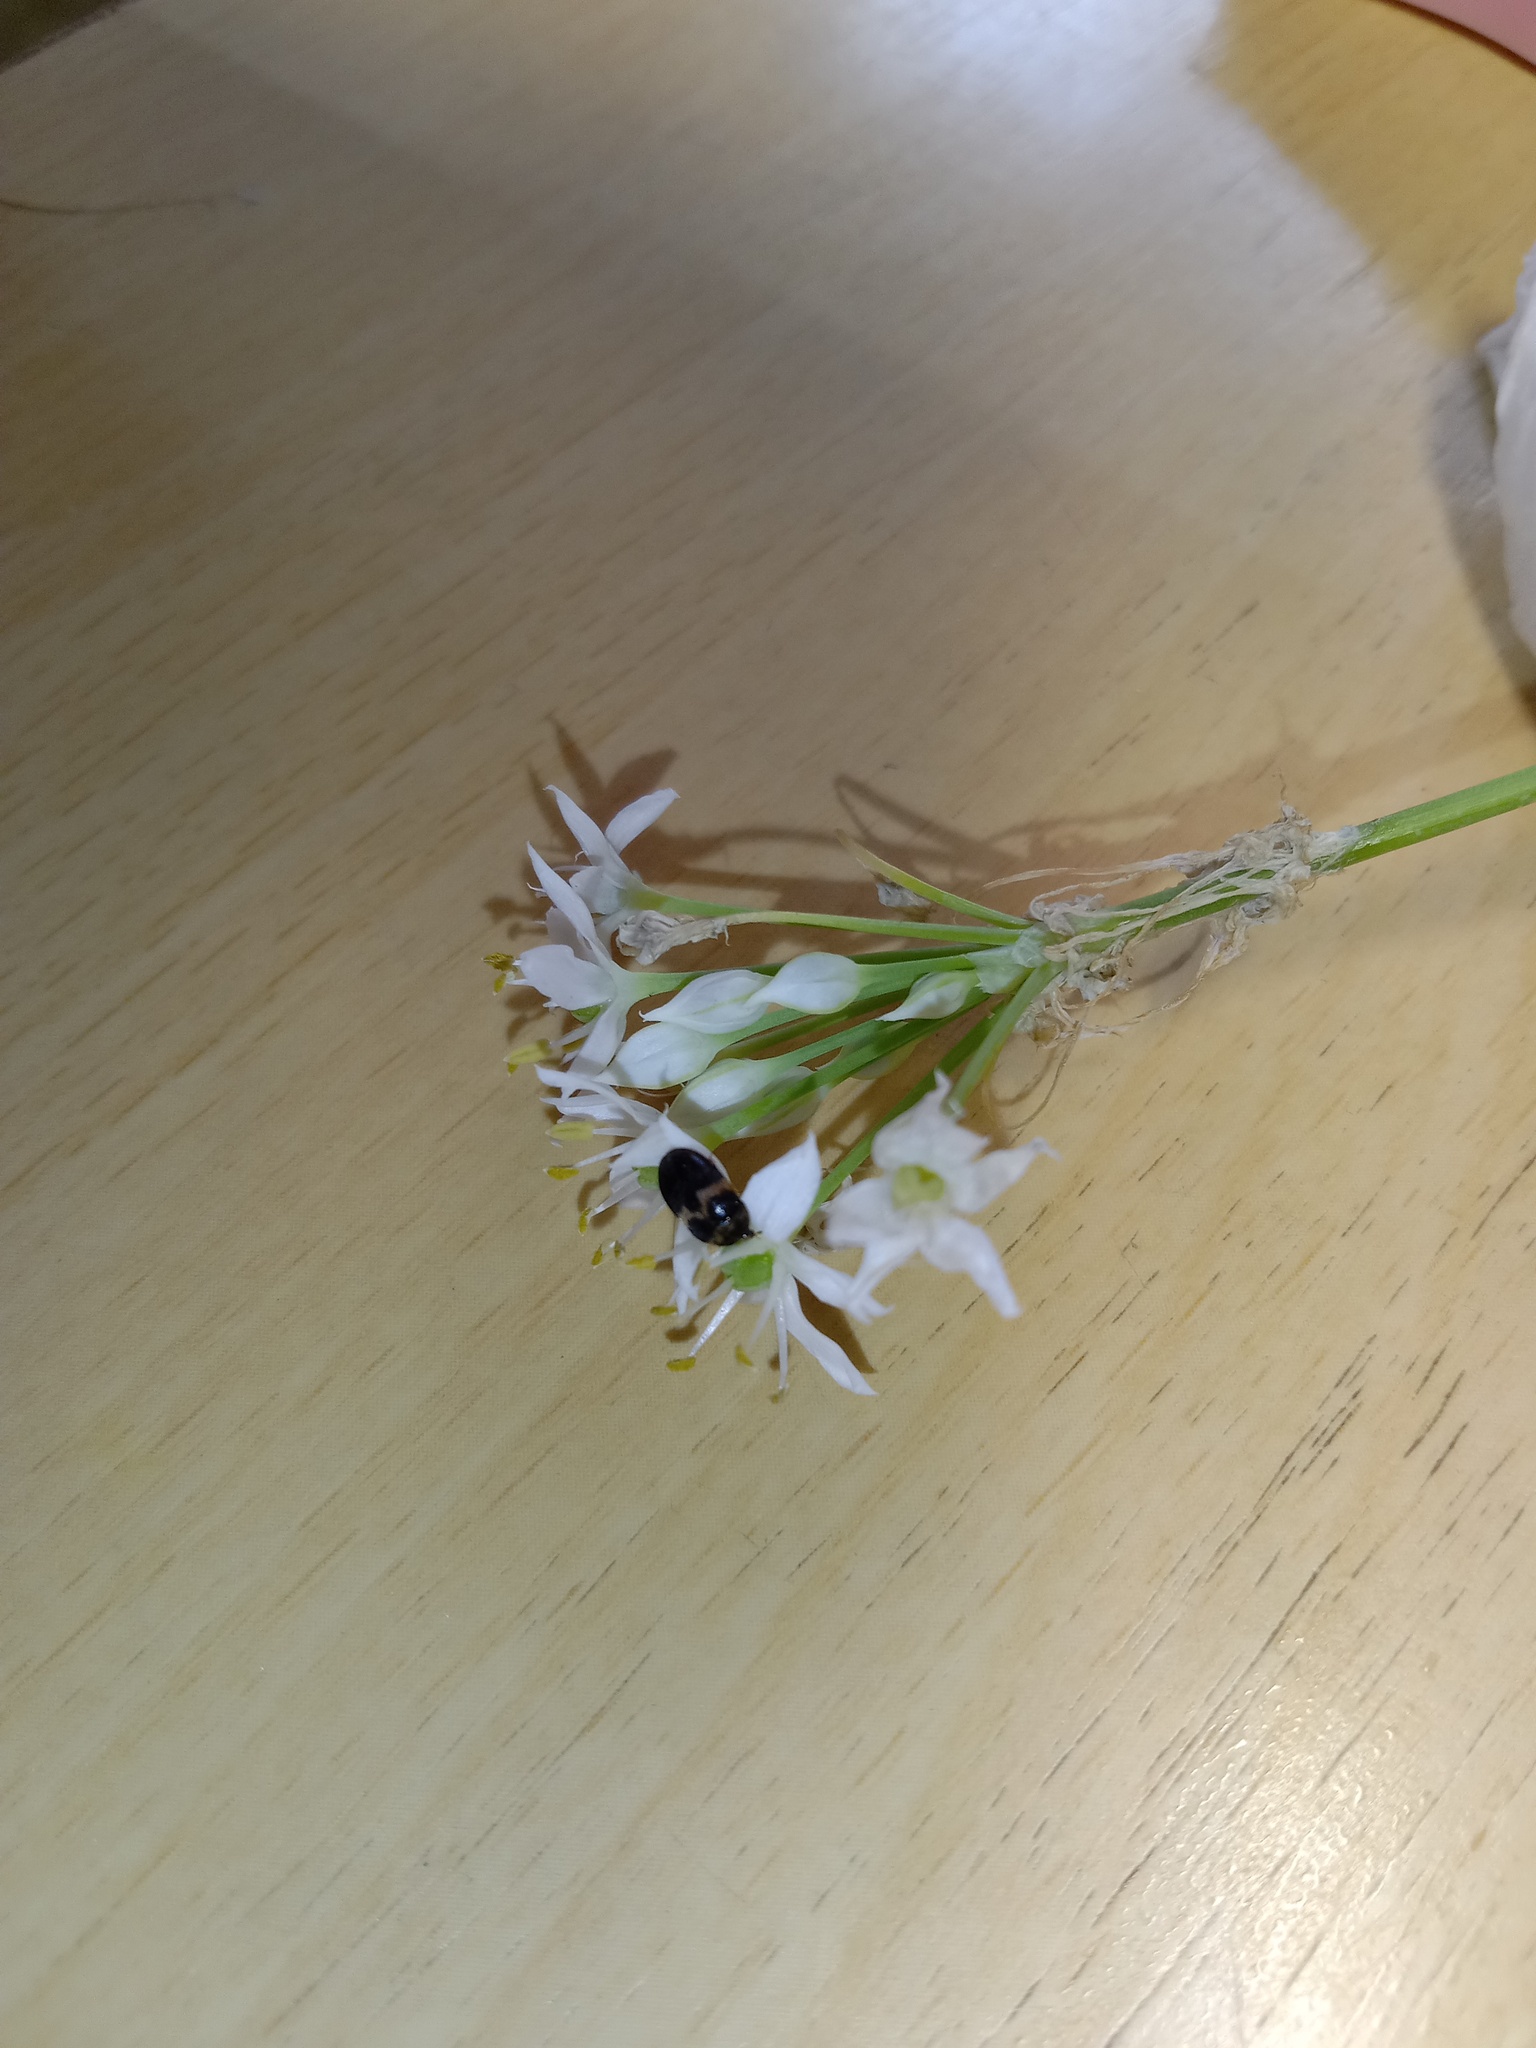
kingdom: Animalia
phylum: Arthropoda
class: Insecta
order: Coleoptera
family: Dermestidae
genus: Attagenus
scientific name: Attagenus fasciatus
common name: Wardrobe beetle
